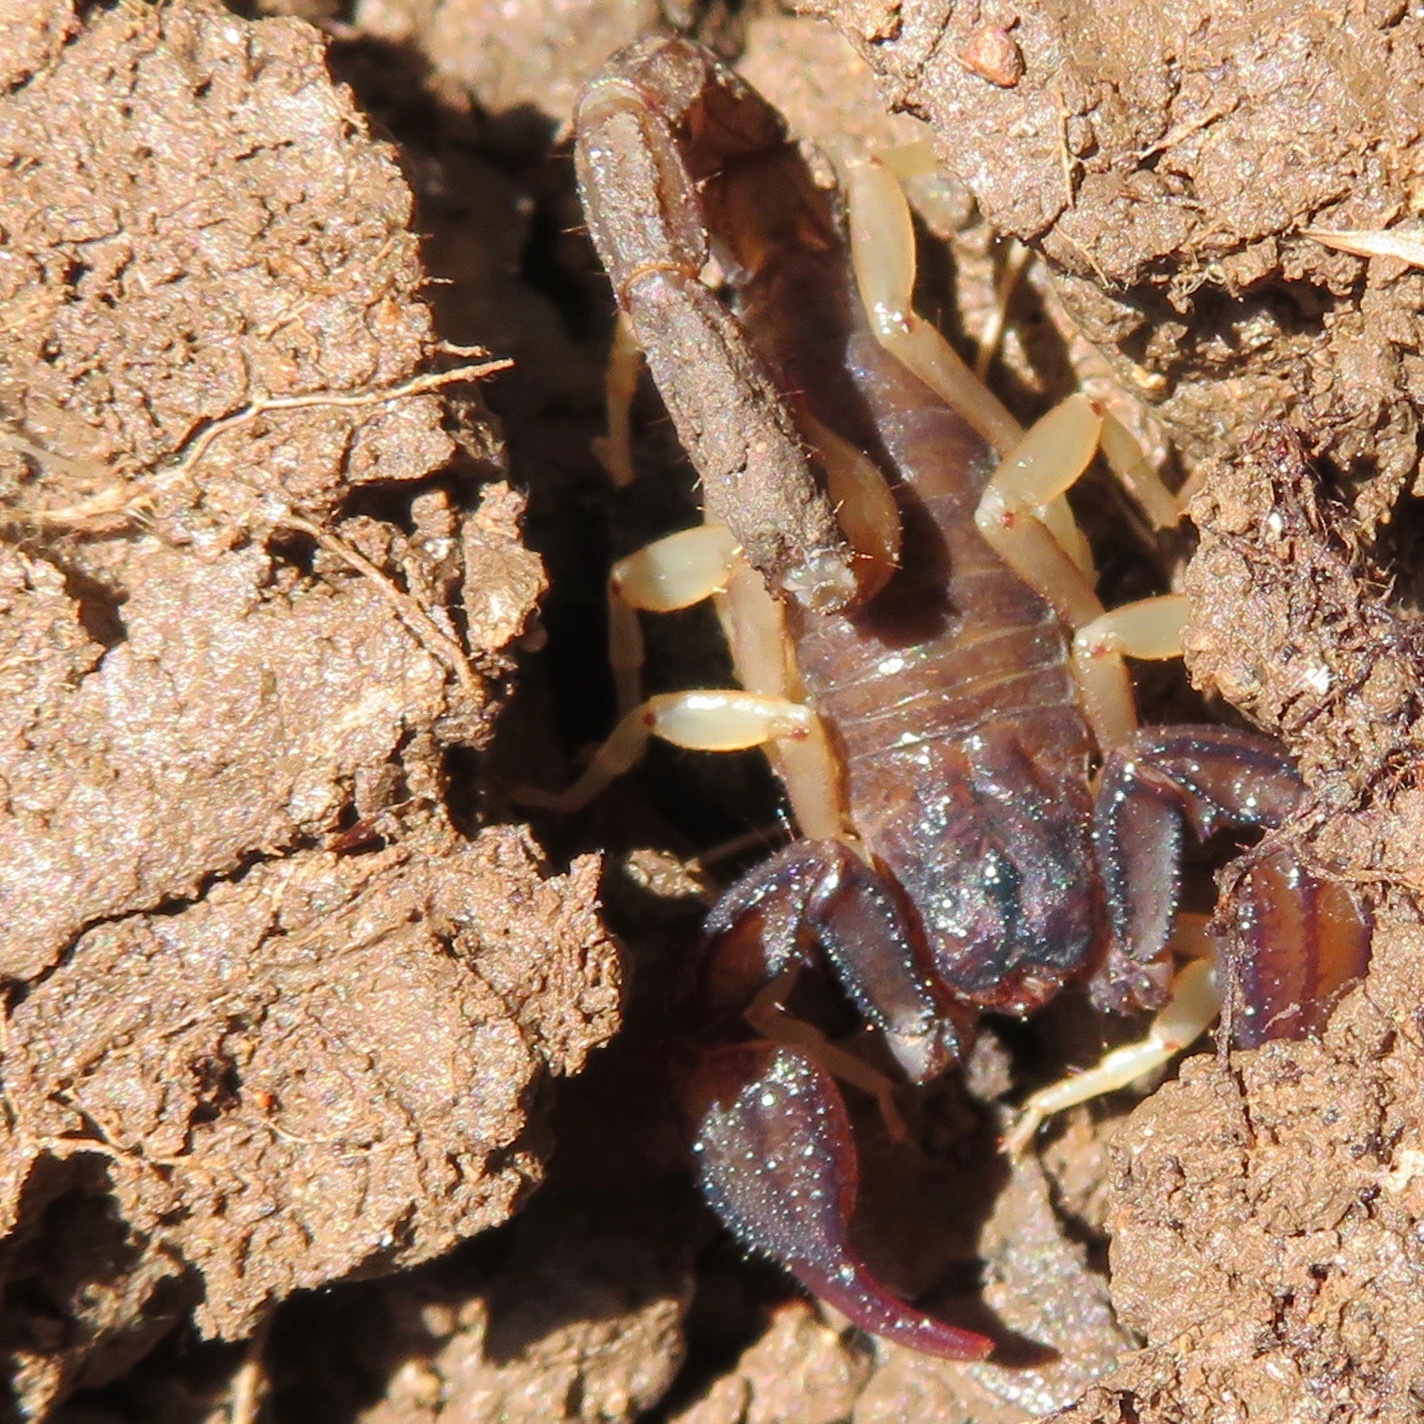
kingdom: Animalia
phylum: Arthropoda
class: Arachnida
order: Scorpiones
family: Chactidae
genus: Uroctonus
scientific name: Uroctonus mordax
